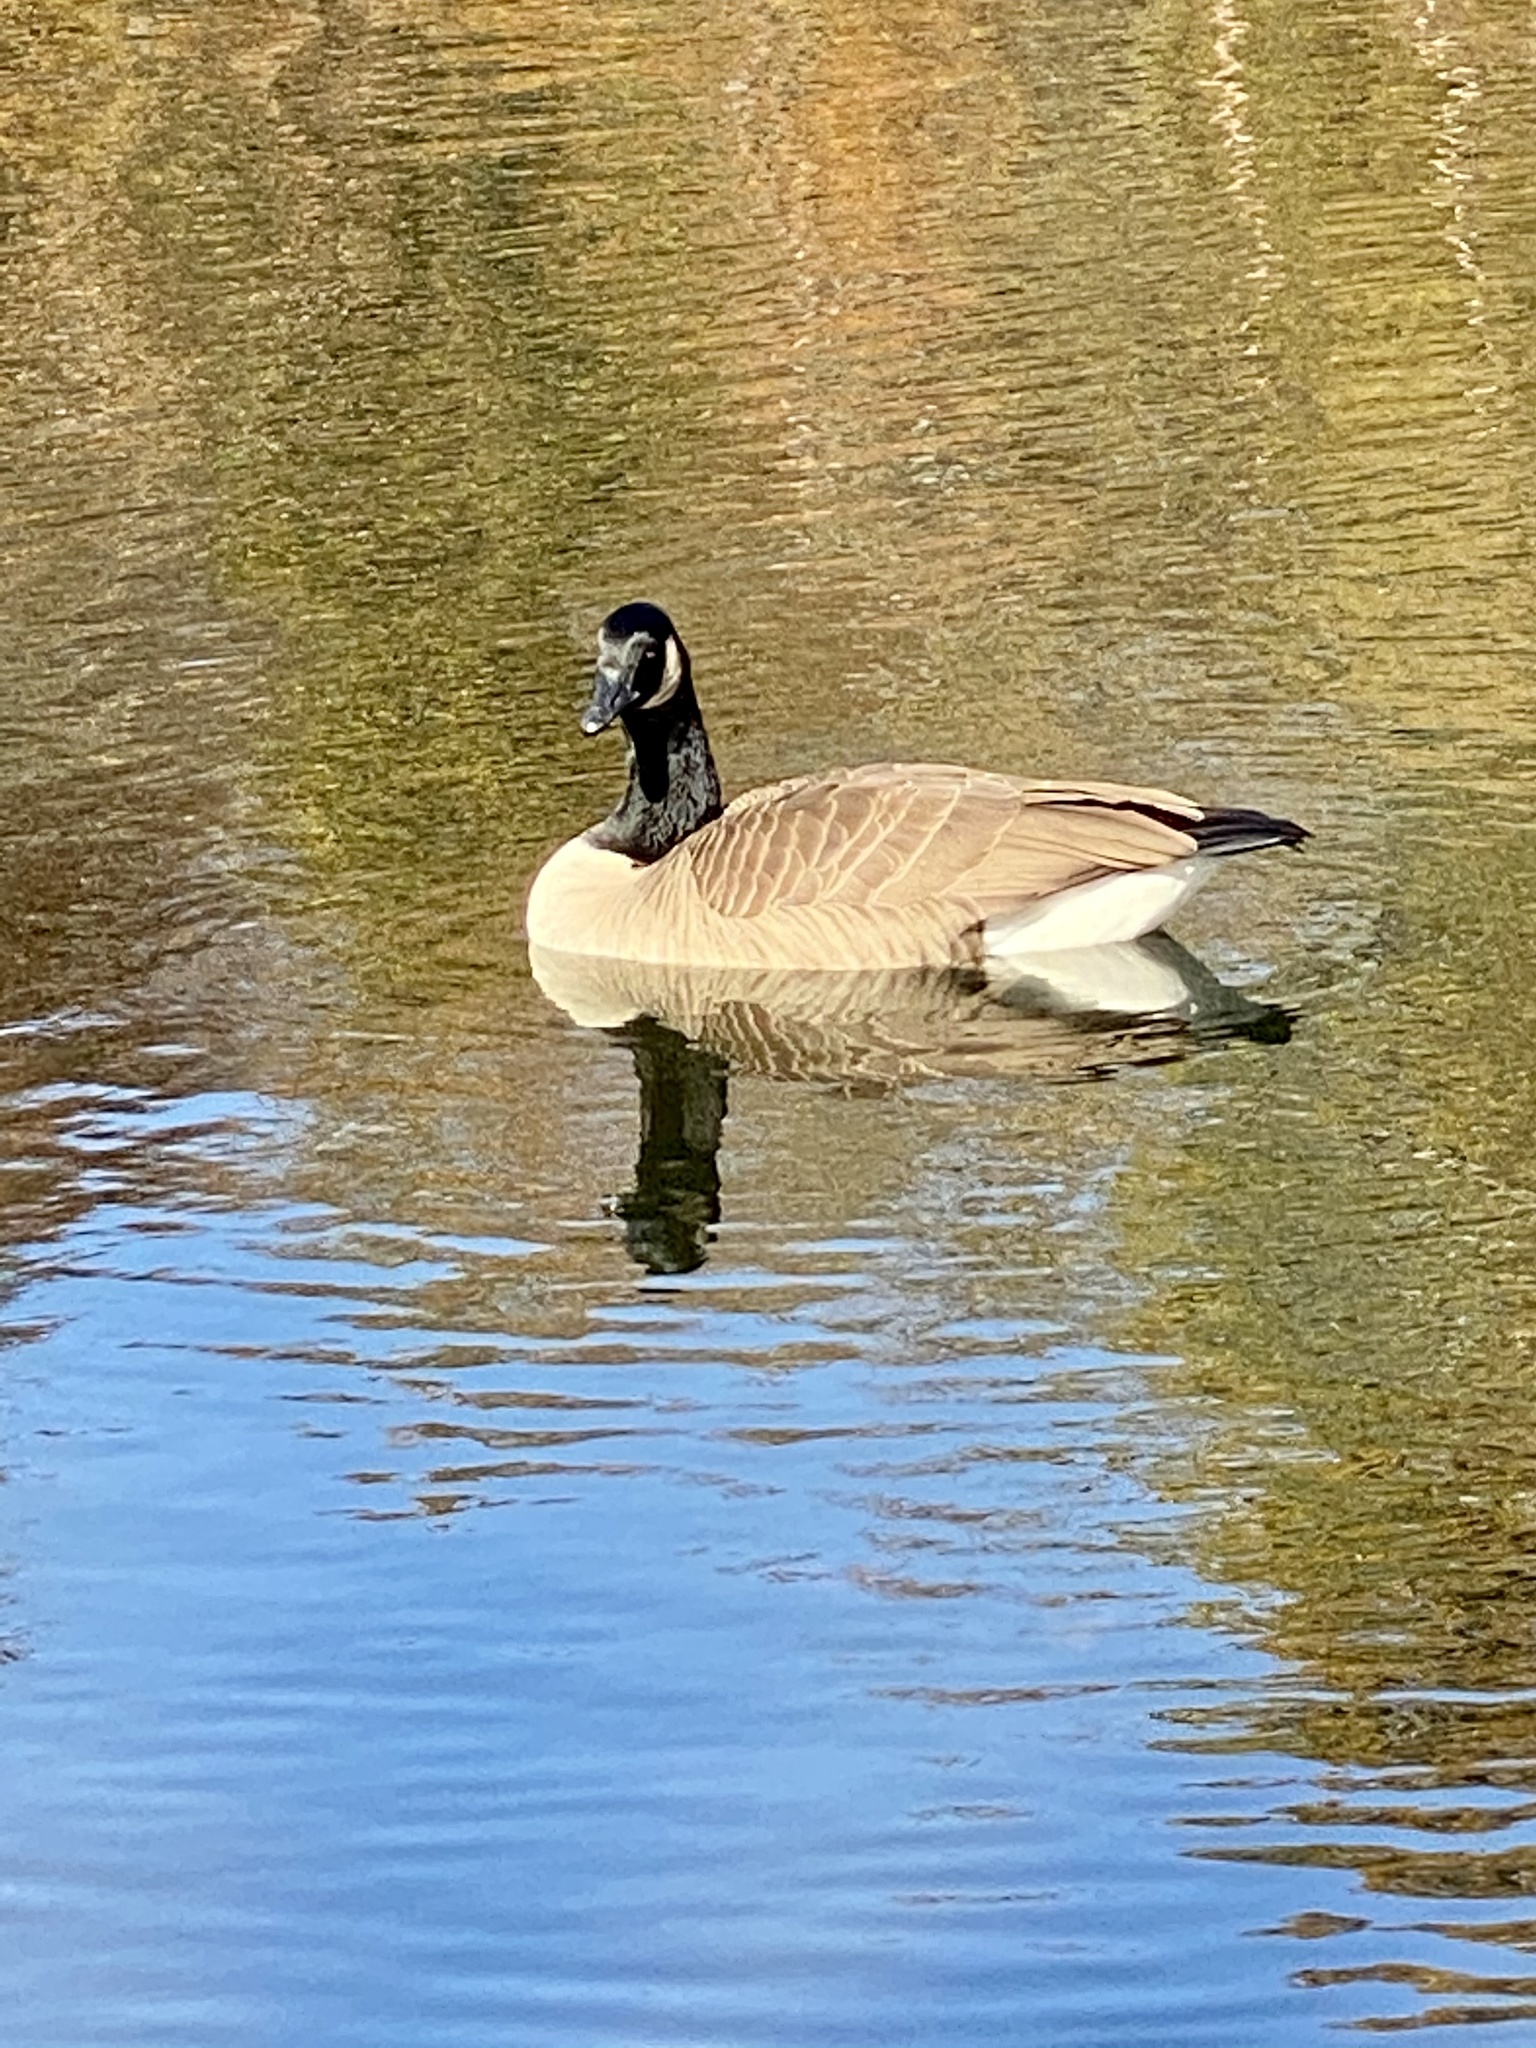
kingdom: Animalia
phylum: Chordata
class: Aves
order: Anseriformes
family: Anatidae
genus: Branta
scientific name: Branta canadensis
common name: Canada goose
